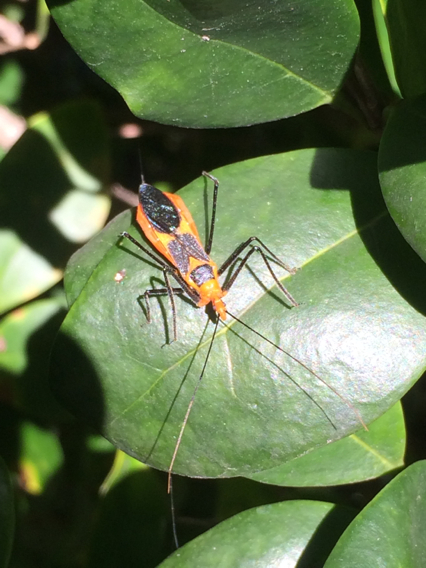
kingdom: Animalia
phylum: Arthropoda
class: Insecta
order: Hemiptera
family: Reduviidae
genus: Zelus
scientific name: Zelus longipes
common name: Milkweed assassin bug
